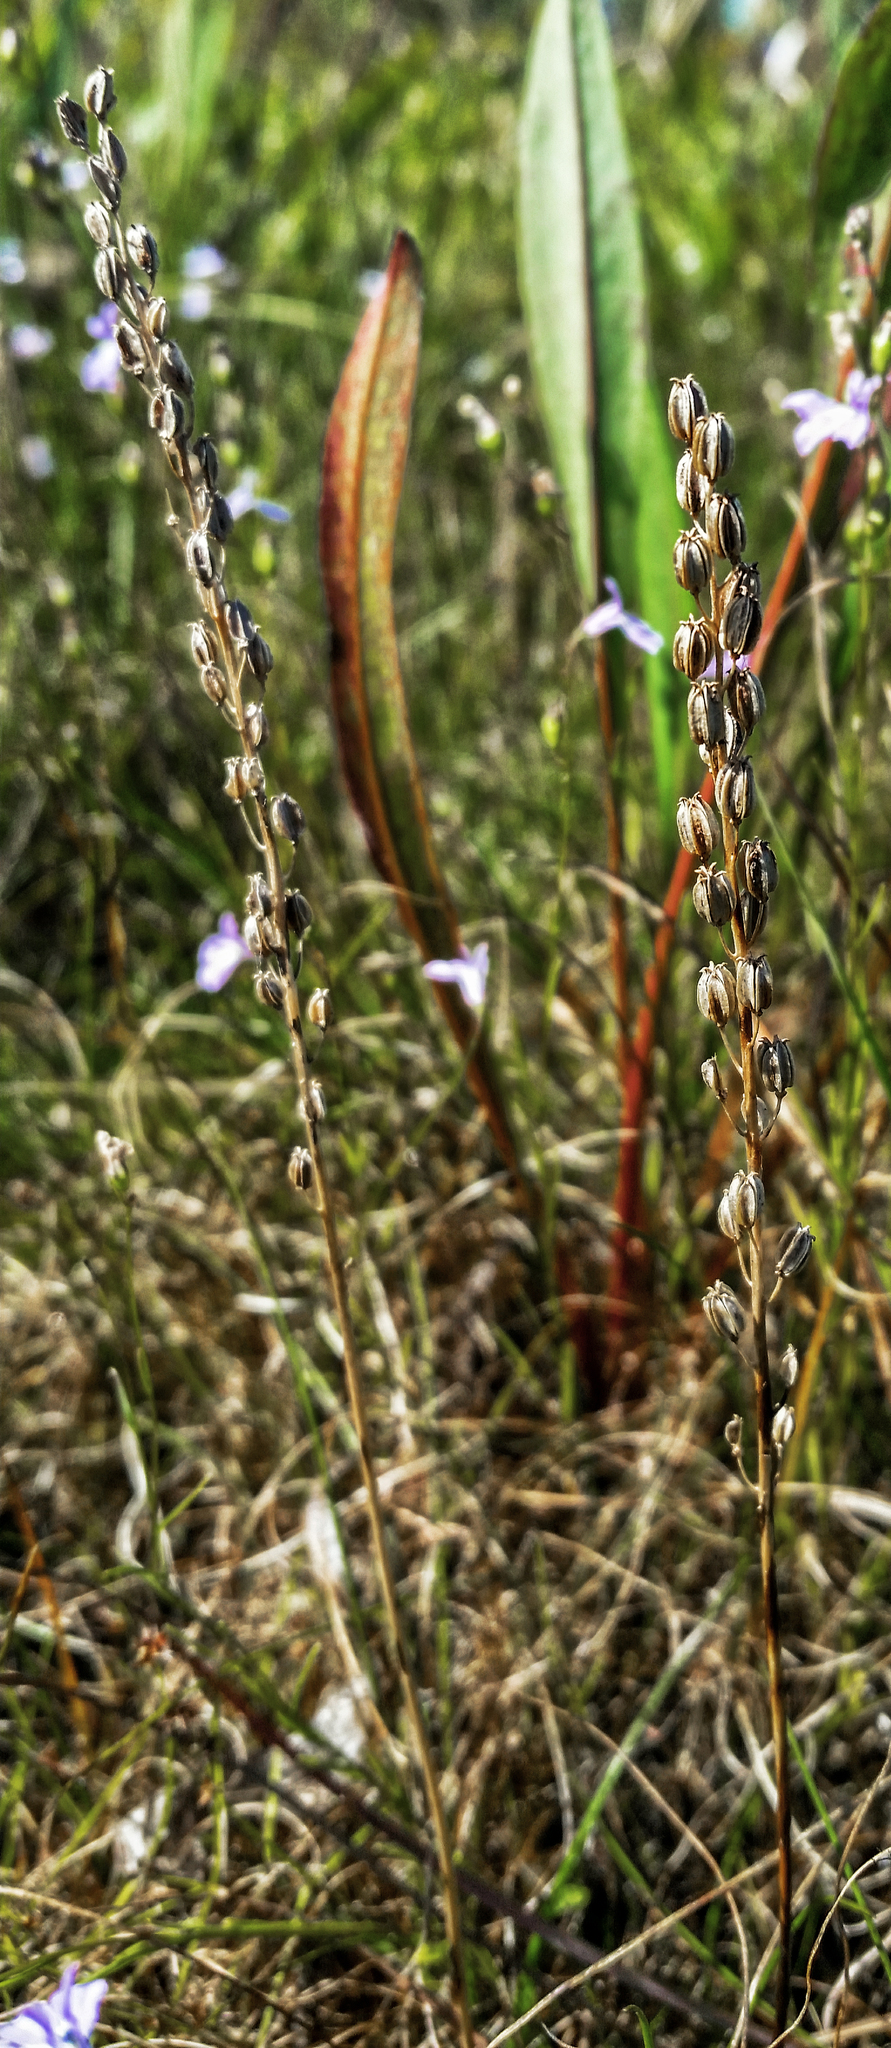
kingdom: Plantae
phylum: Tracheophyta
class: Liliopsida
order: Alismatales
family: Juncaginaceae
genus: Triglochin
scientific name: Triglochin maritima
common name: Sea arrowgrass
